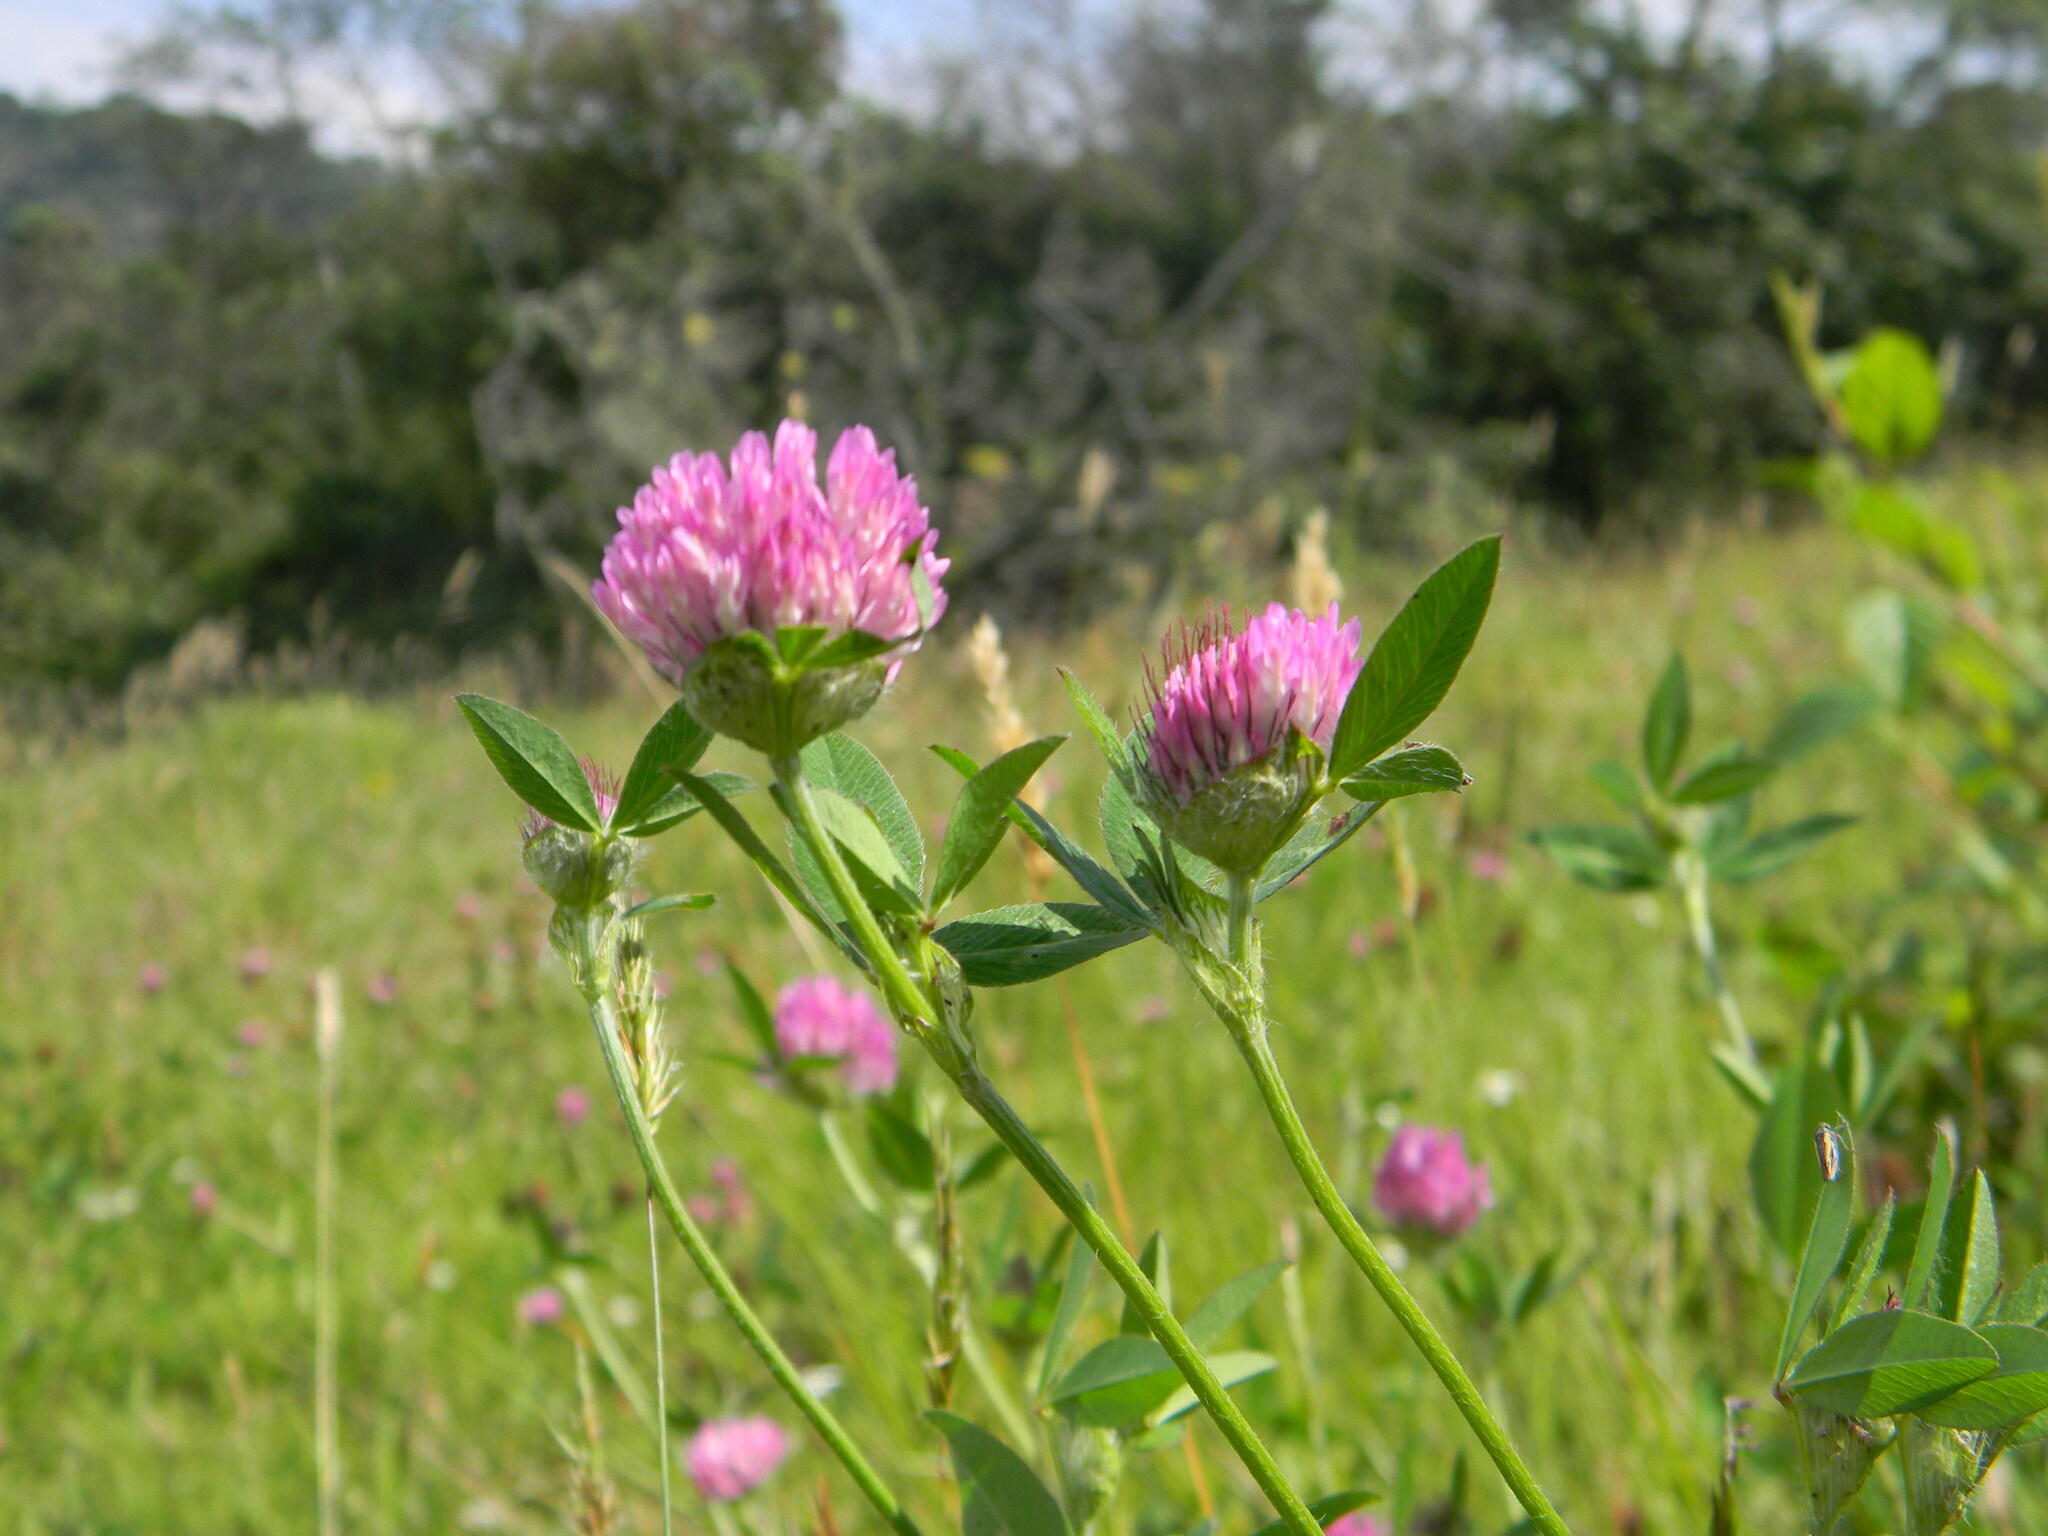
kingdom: Plantae
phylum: Tracheophyta
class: Magnoliopsida
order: Fabales
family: Fabaceae
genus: Trifolium
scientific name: Trifolium pratense
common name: Red clover
